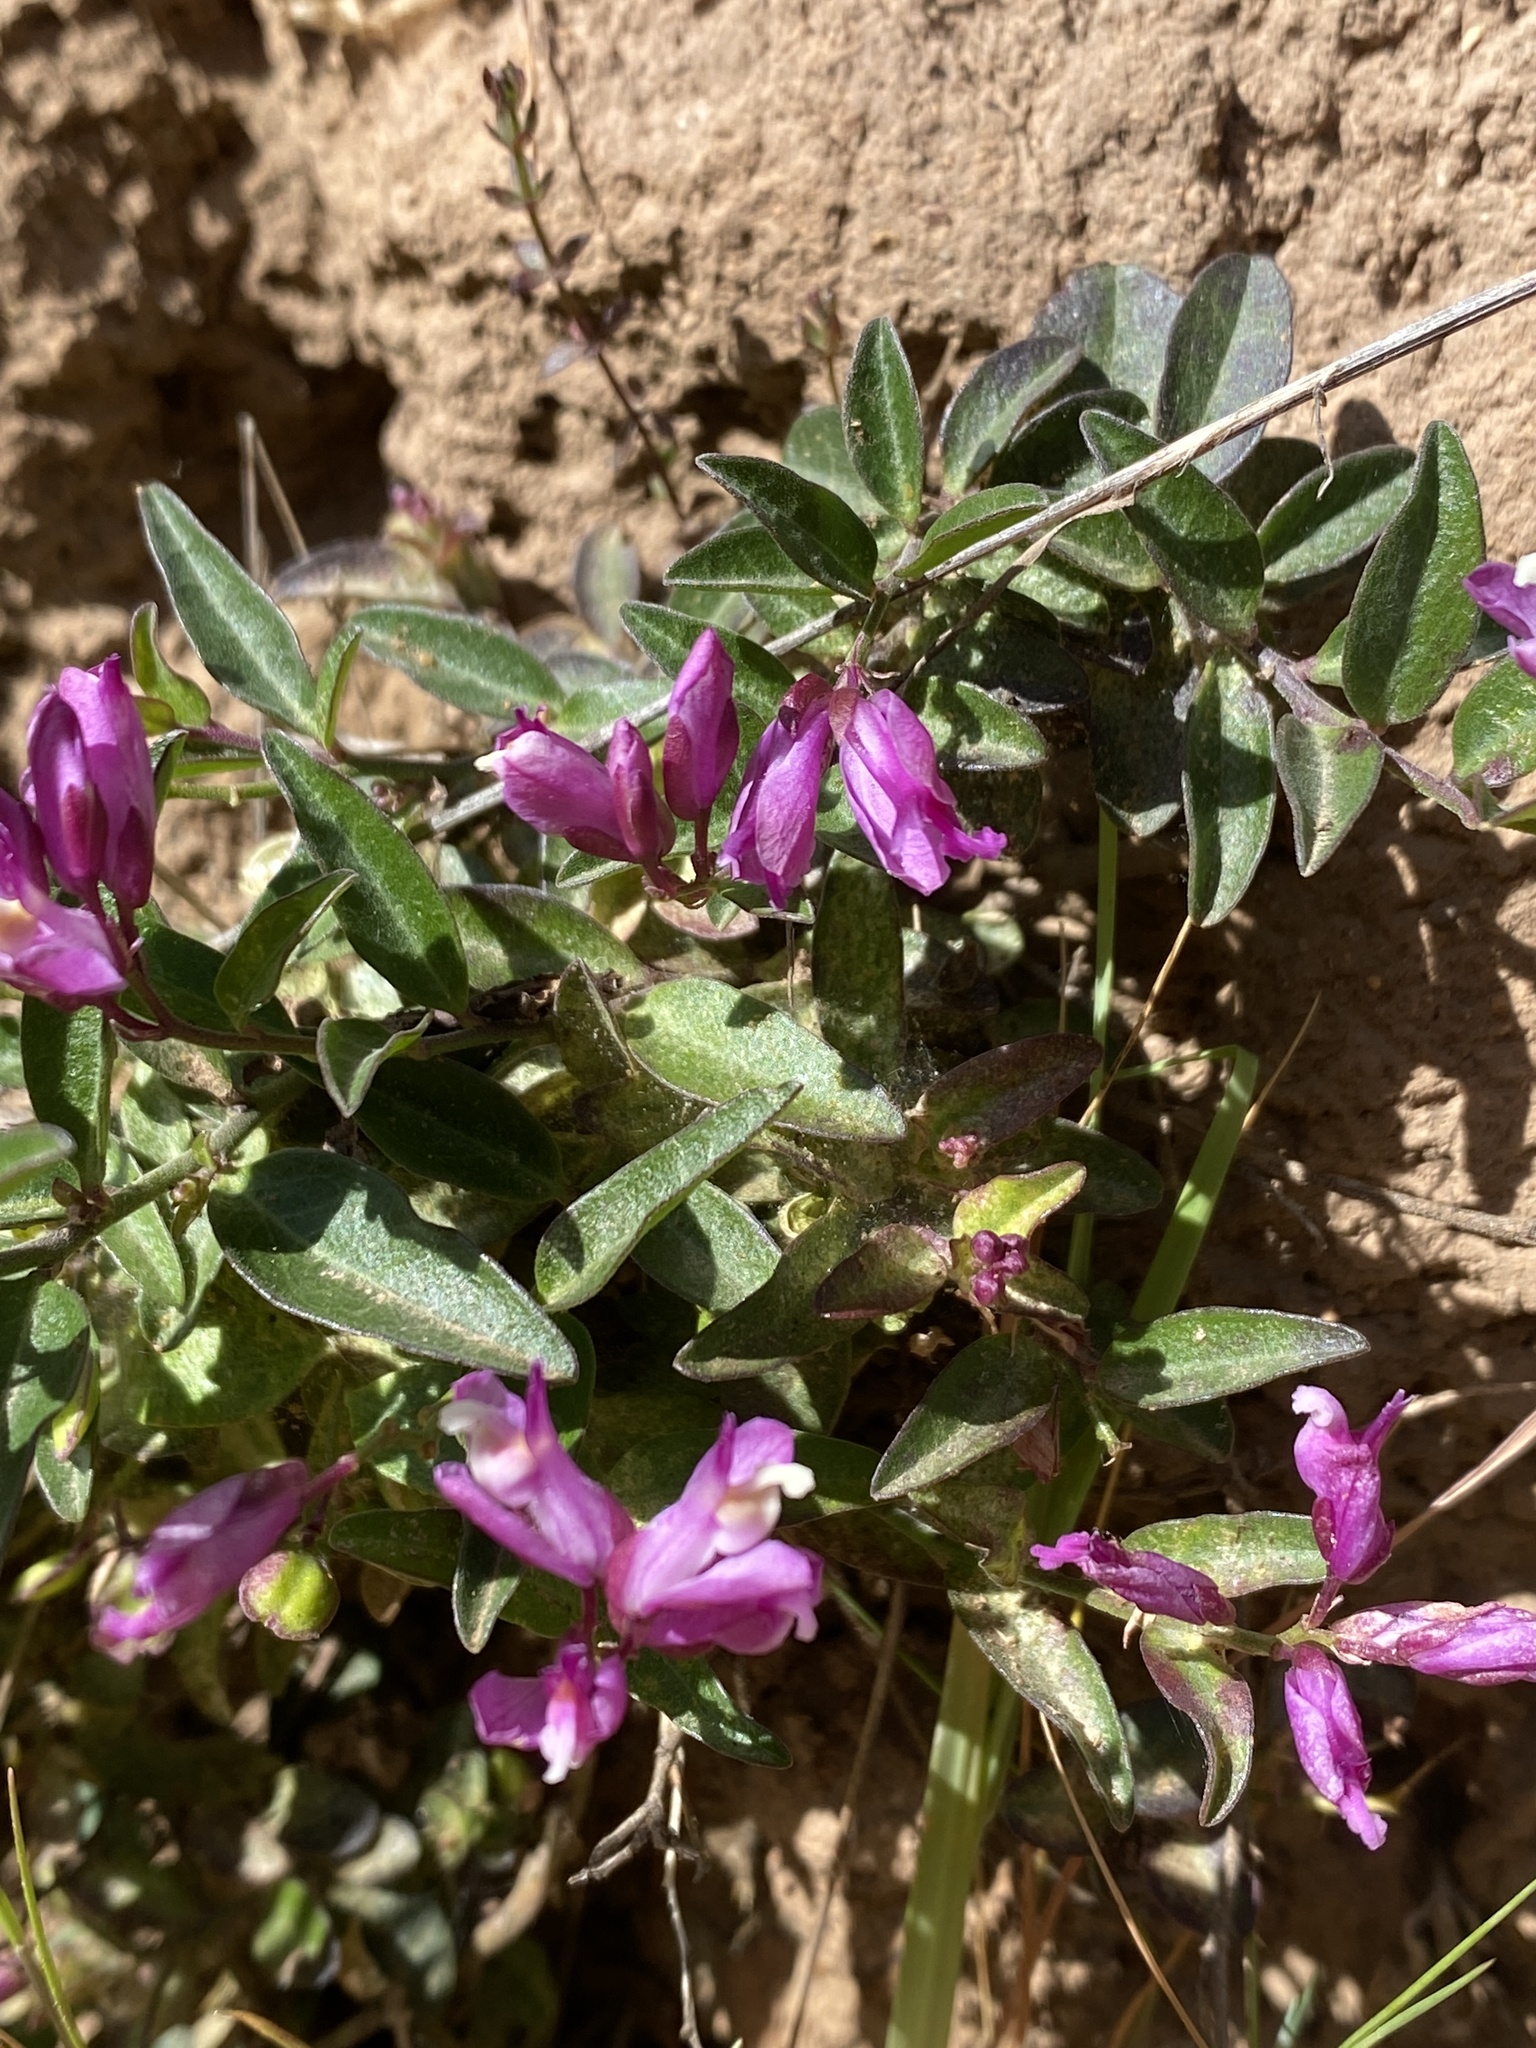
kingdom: Plantae
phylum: Tracheophyta
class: Magnoliopsida
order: Fabales
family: Polygalaceae
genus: Rhinotropis
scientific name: Rhinotropis californica
